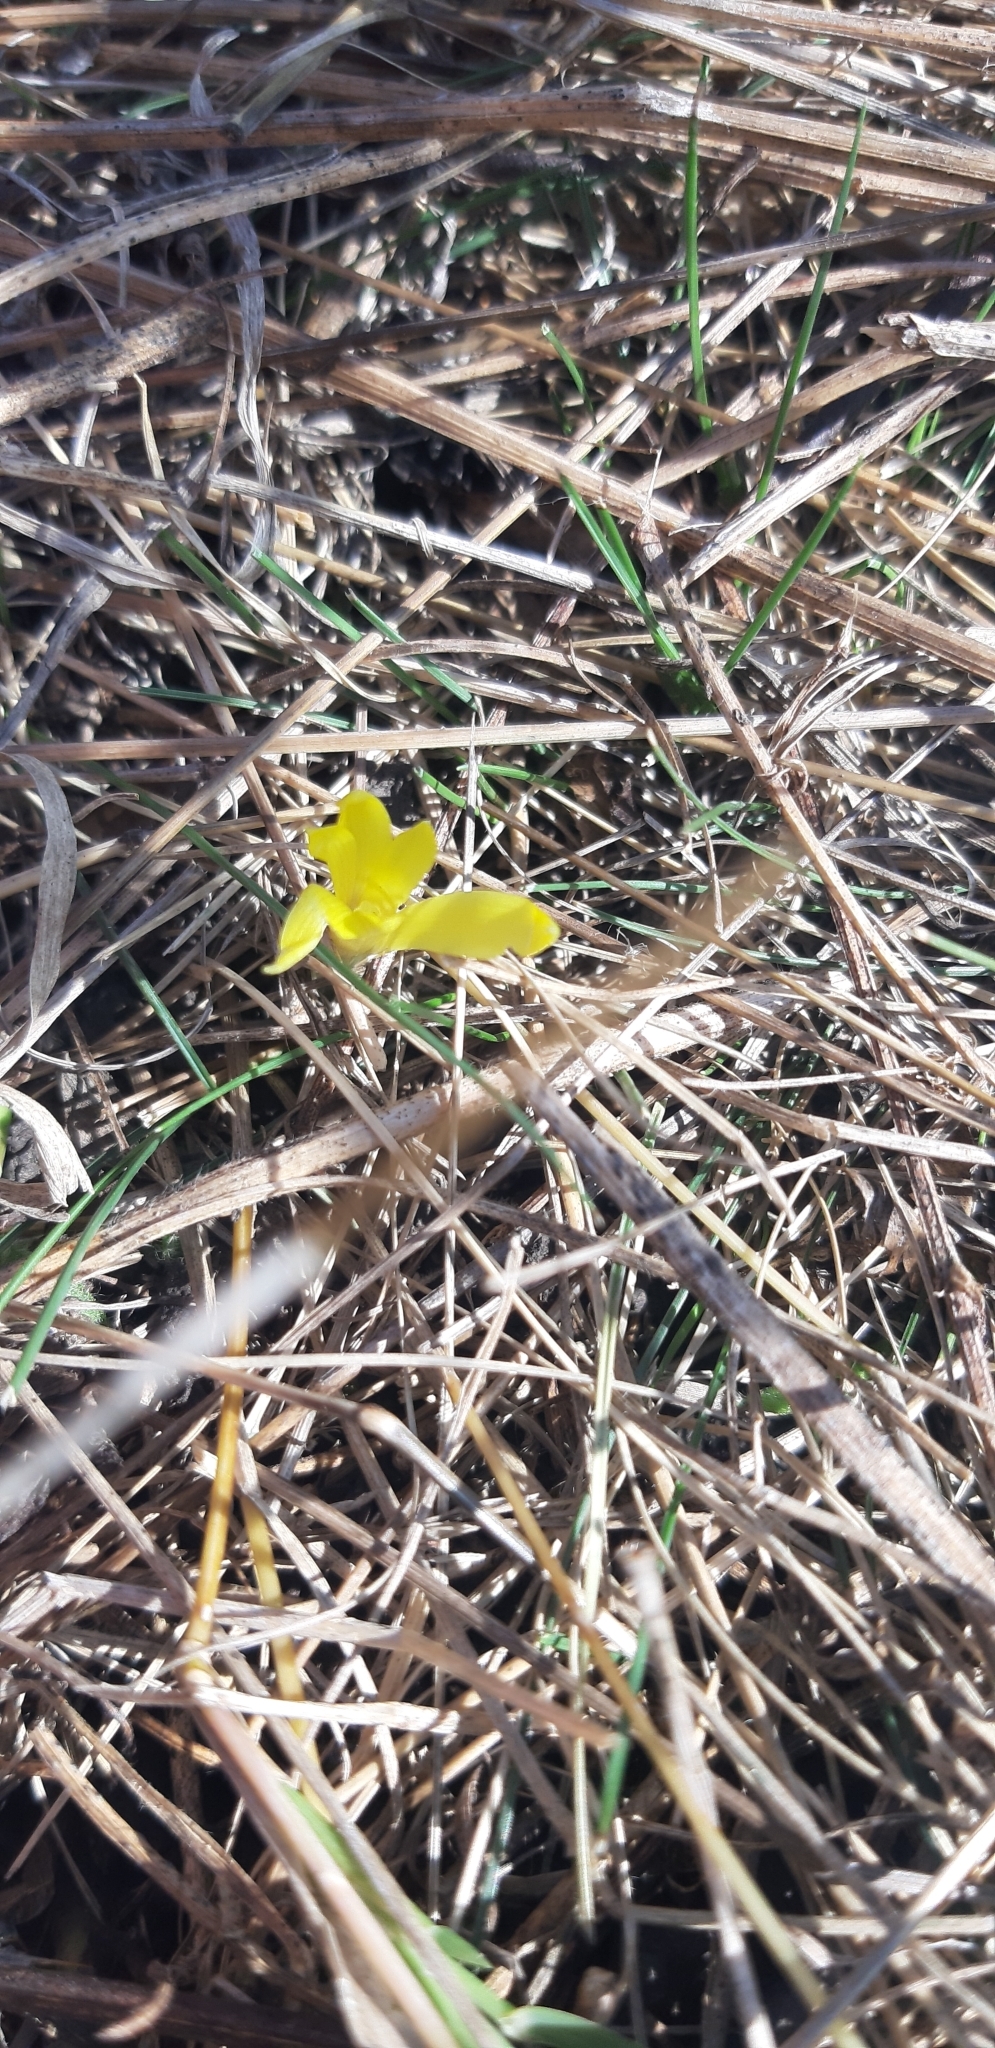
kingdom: Plantae
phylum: Tracheophyta
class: Liliopsida
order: Asparagales
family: Amaryllidaceae
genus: Sternbergia
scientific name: Sternbergia colchiciflora
